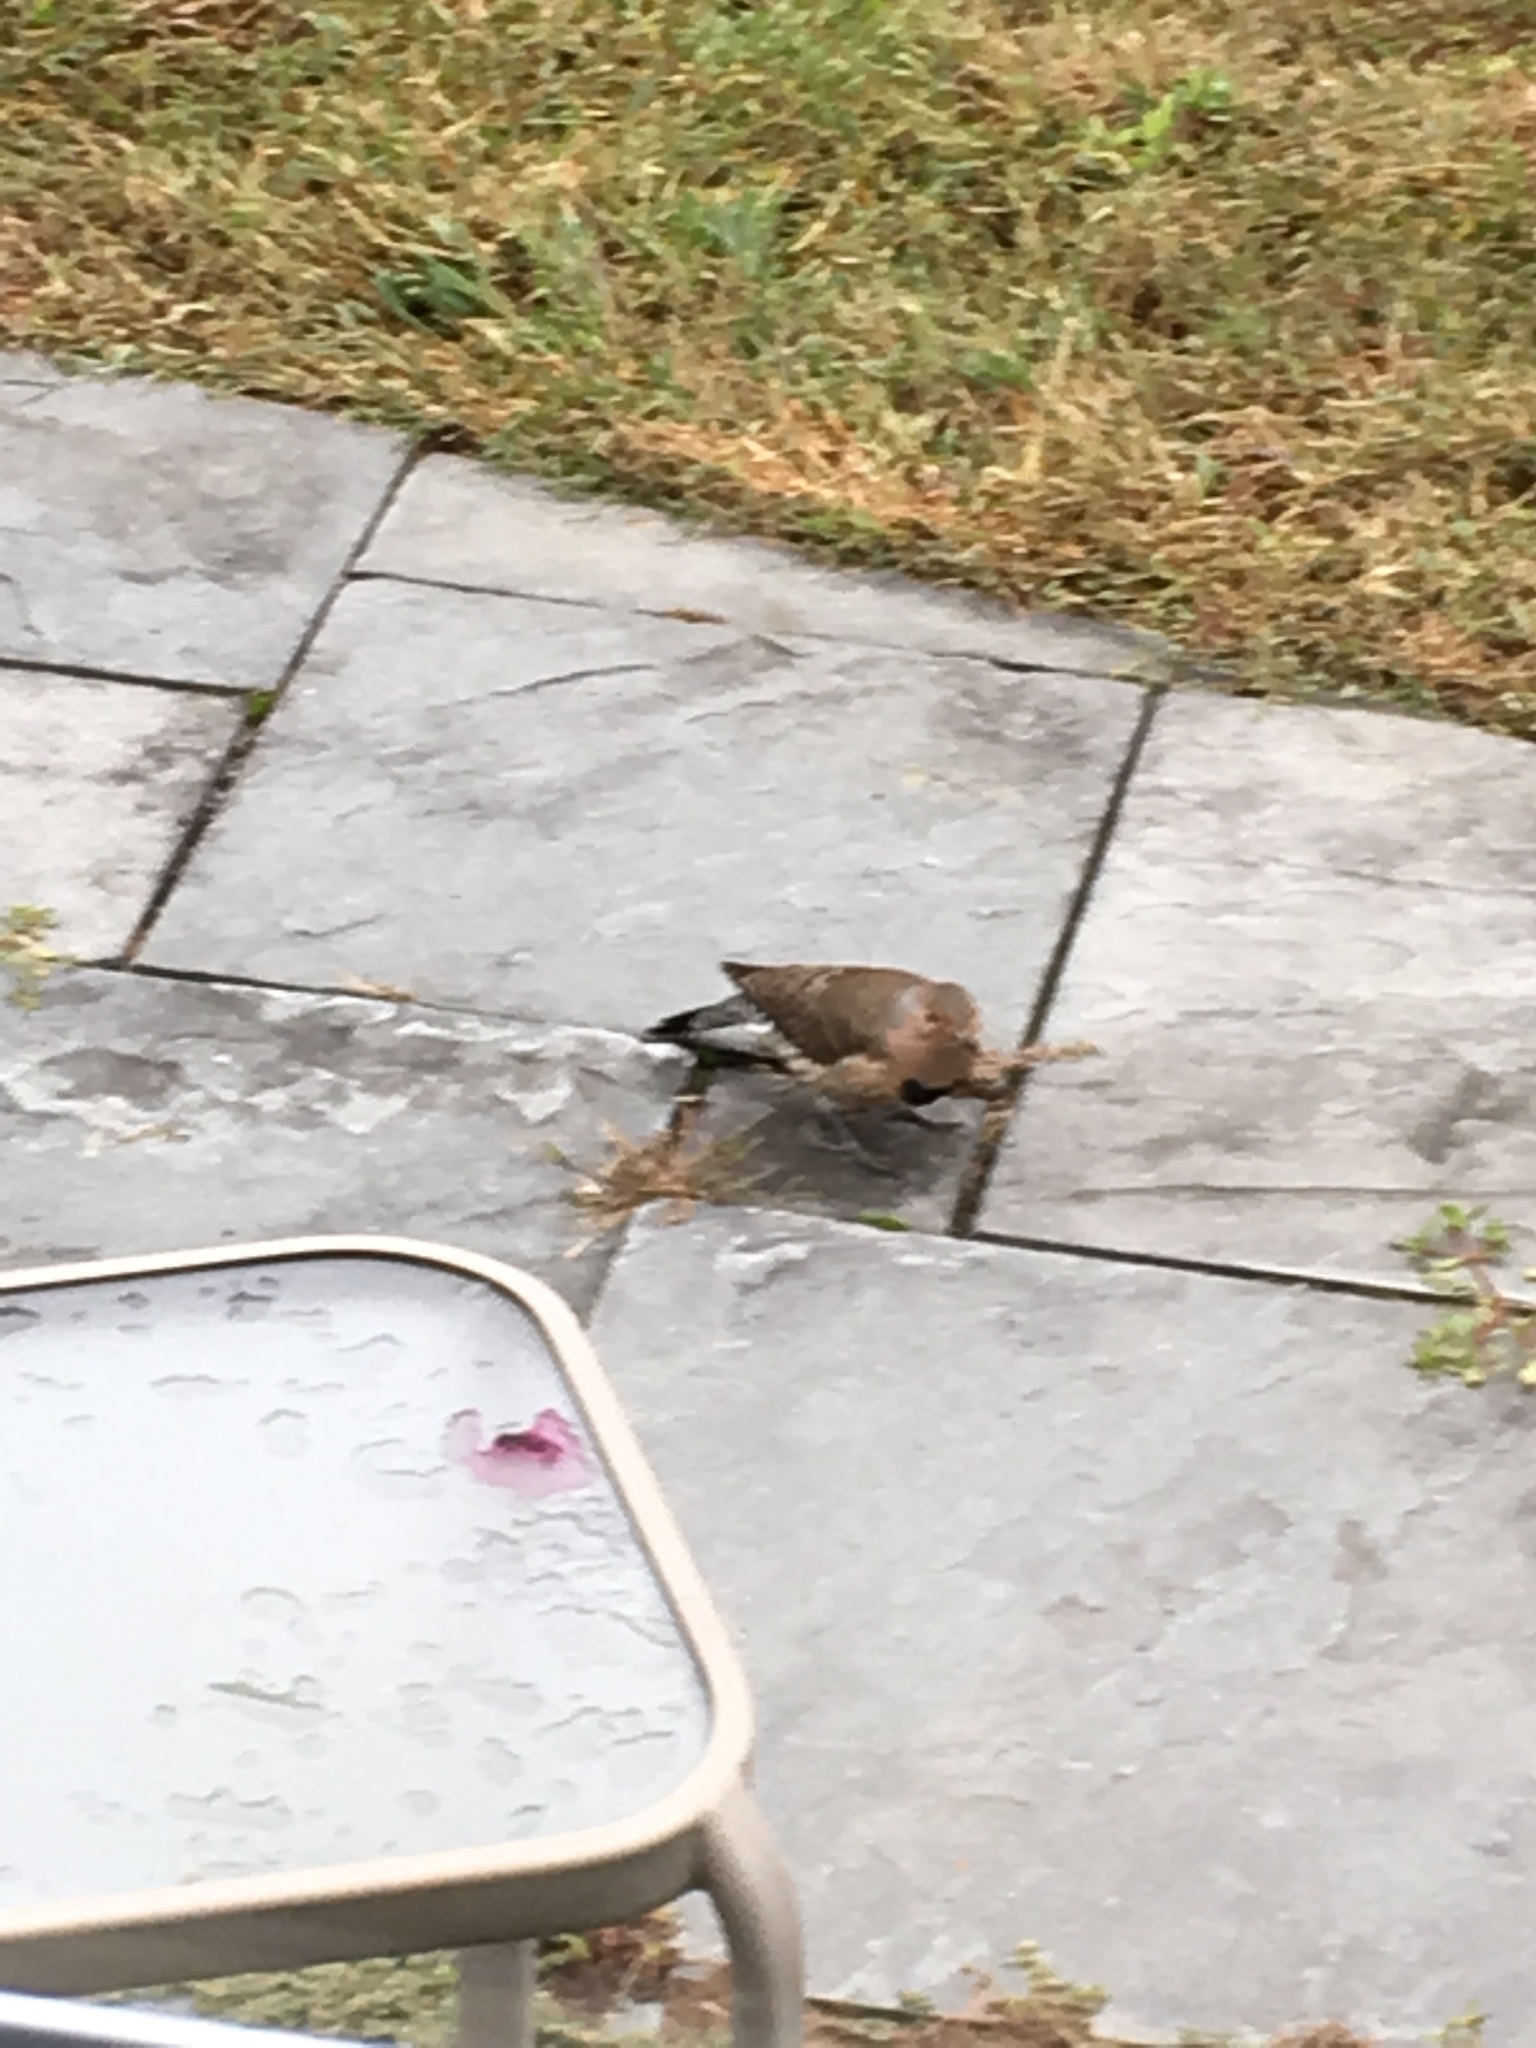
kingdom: Animalia
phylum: Chordata
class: Aves
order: Piciformes
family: Picidae
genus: Colaptes
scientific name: Colaptes auratus
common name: Northern flicker
